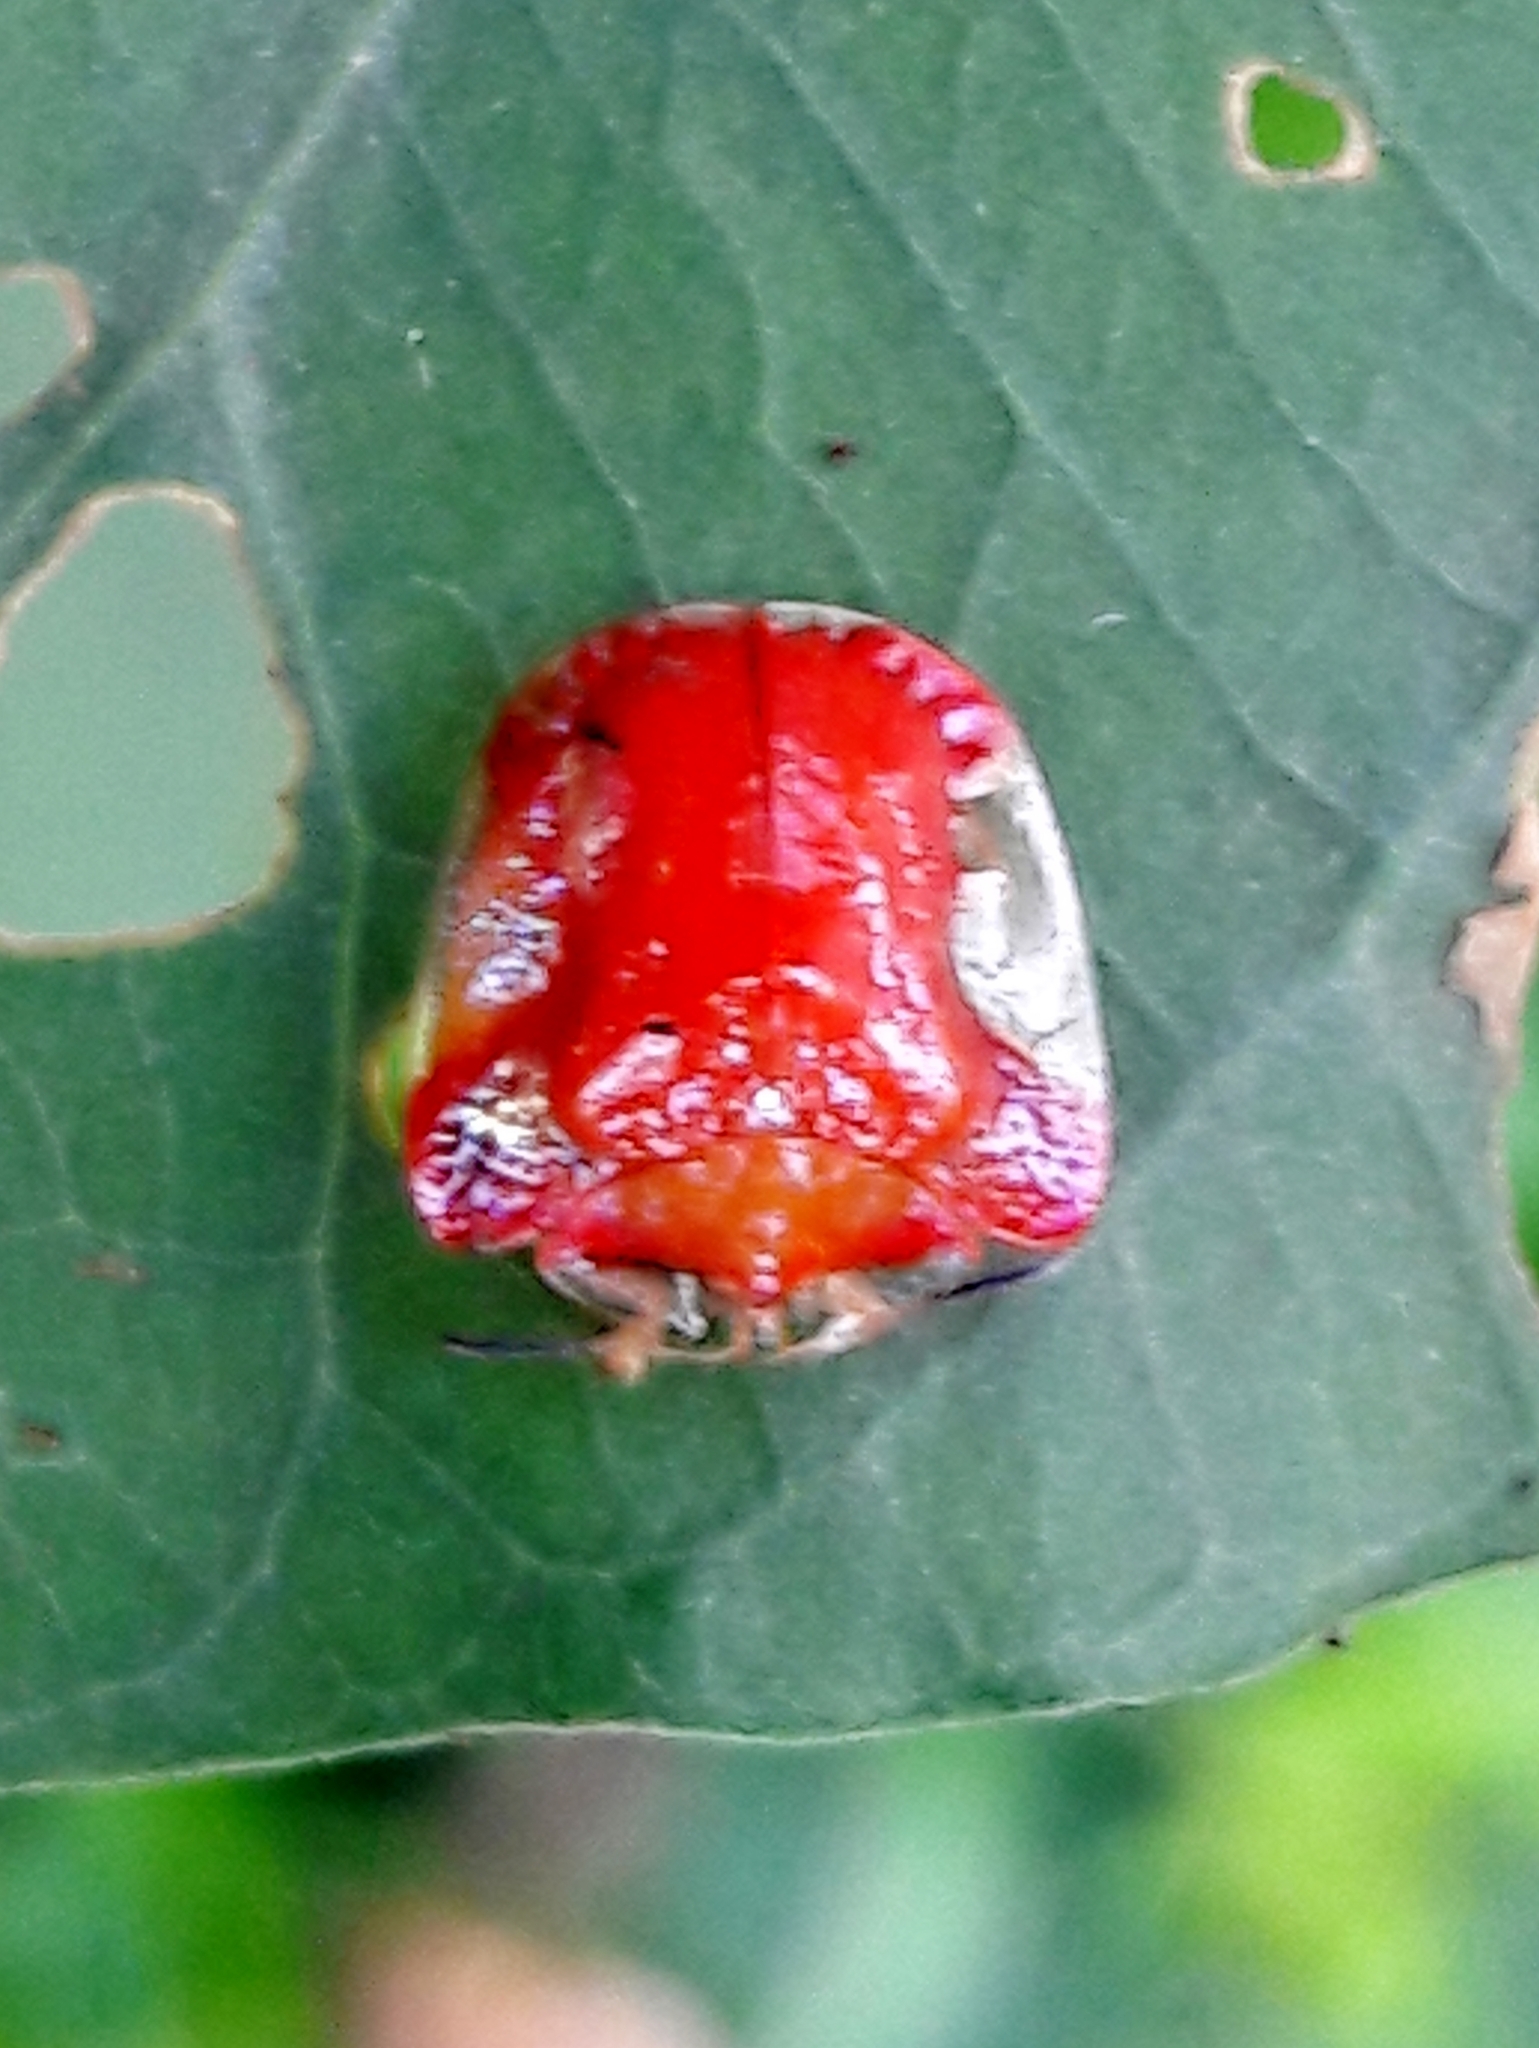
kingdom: Animalia
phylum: Arthropoda
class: Insecta
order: Coleoptera
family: Chrysomelidae
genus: Charidotella
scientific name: Charidotella rubicunda
